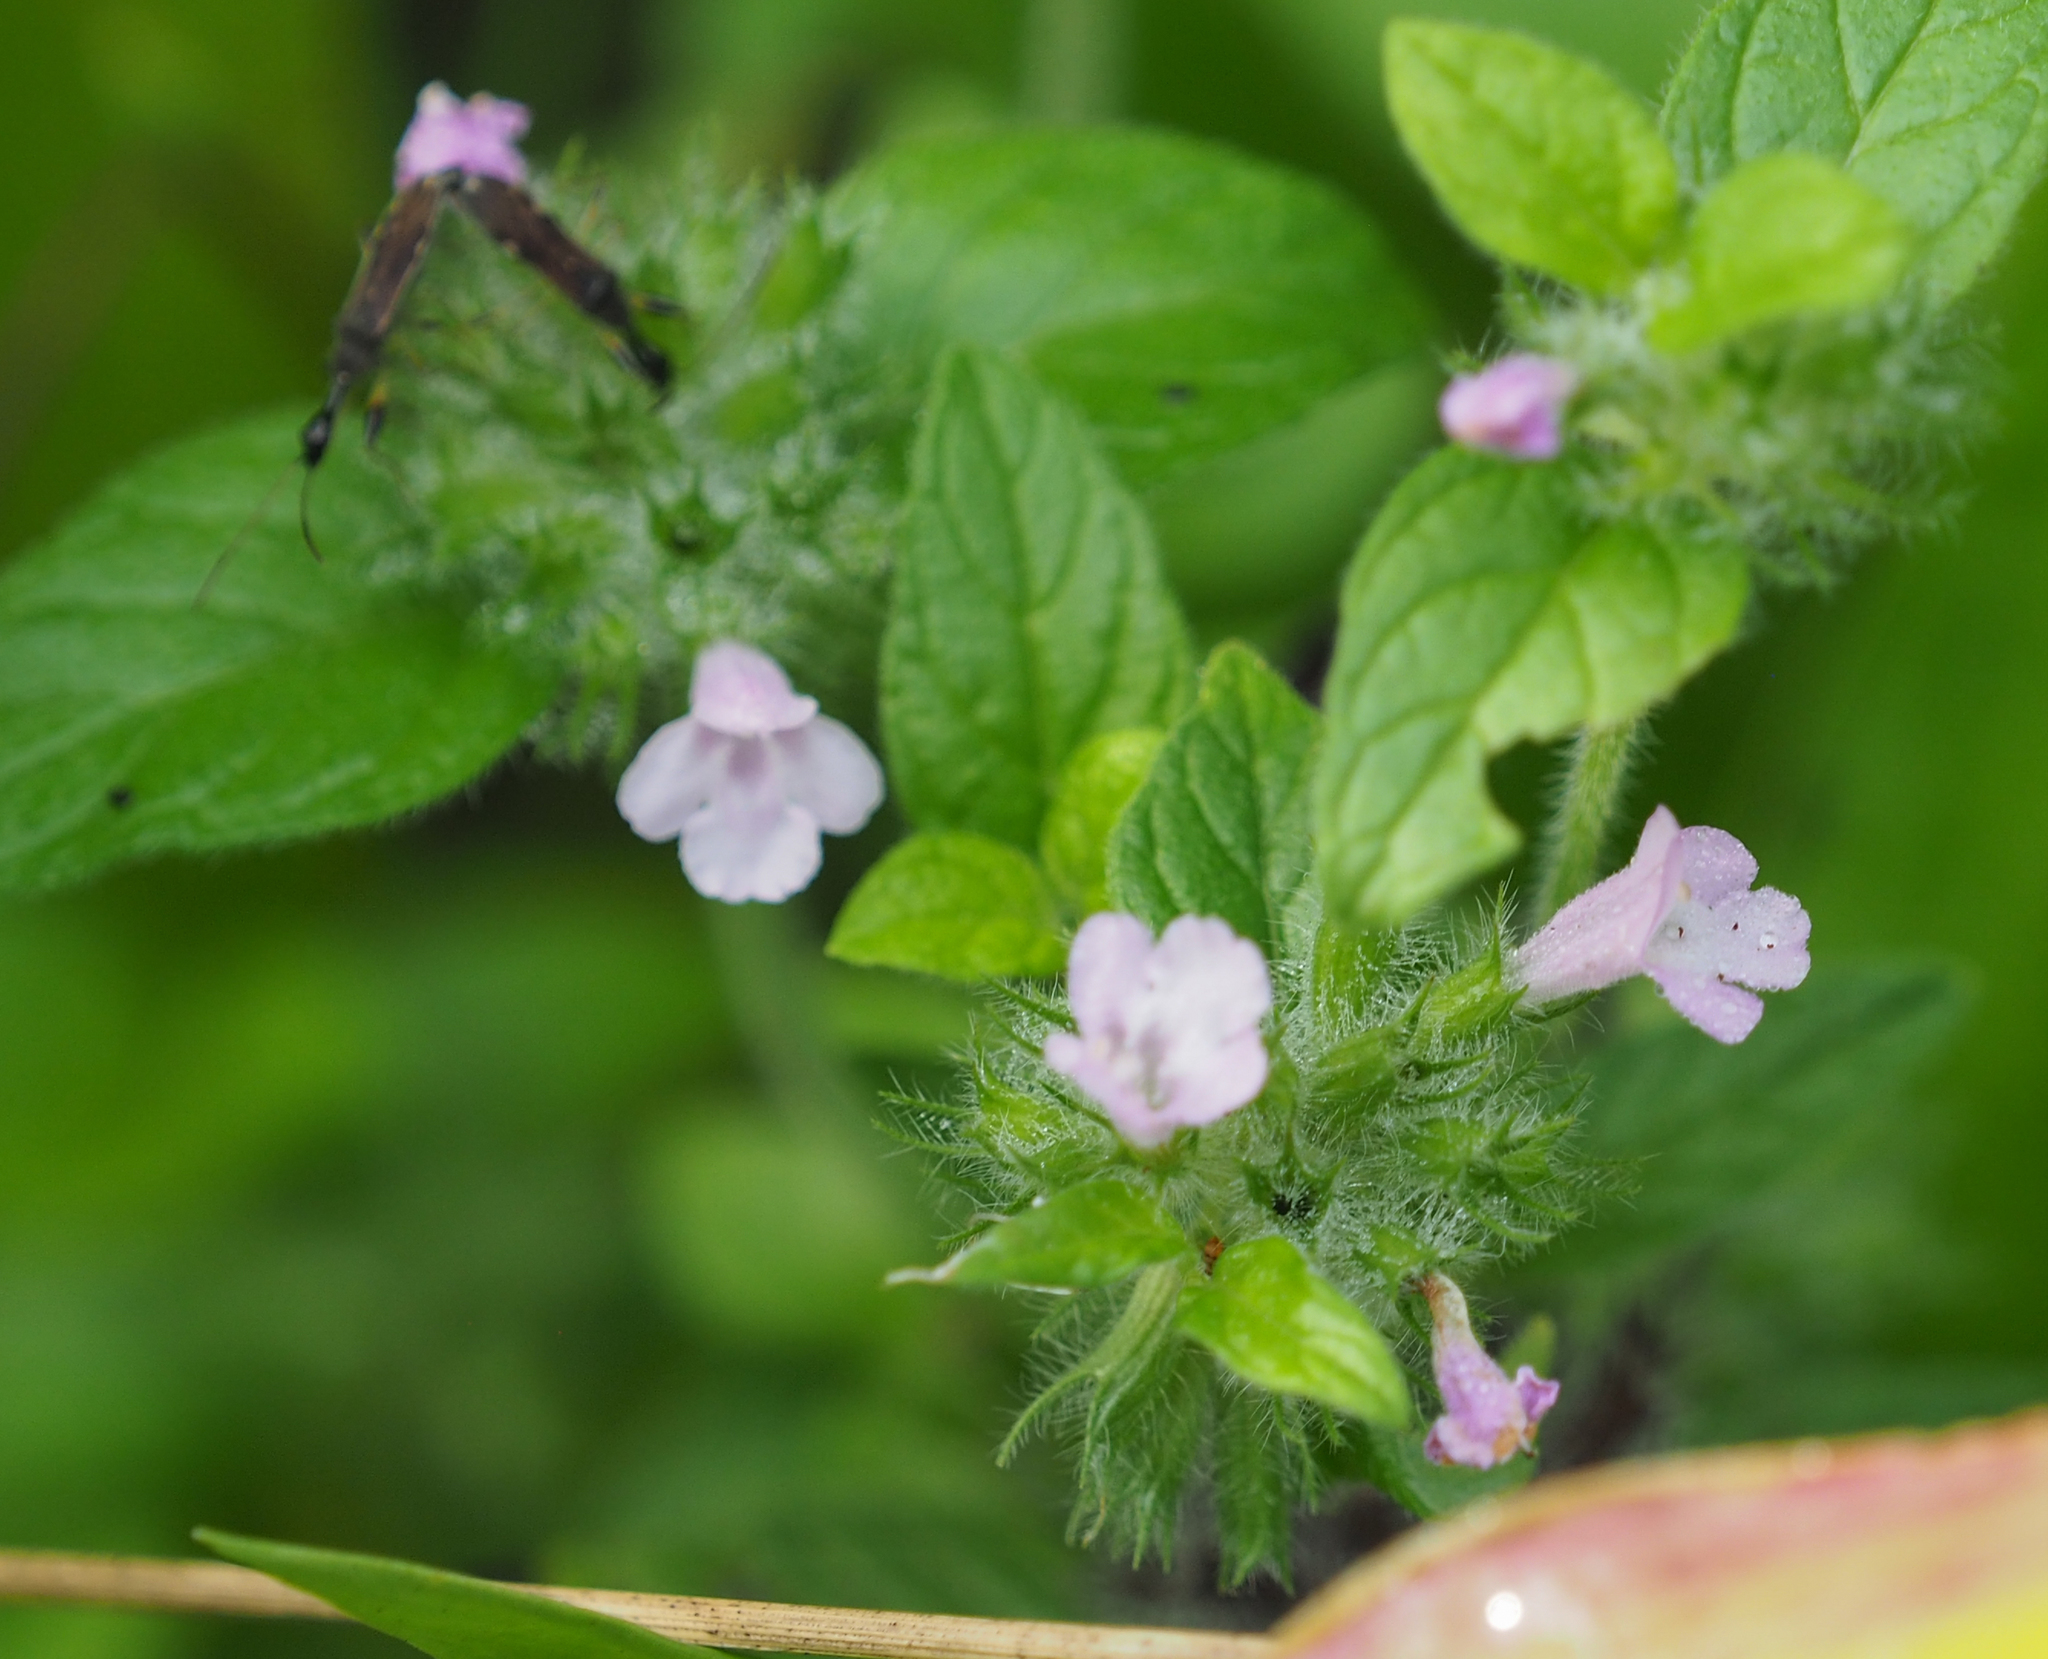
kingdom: Plantae
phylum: Tracheophyta
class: Magnoliopsida
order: Lamiales
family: Lamiaceae
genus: Clinopodium
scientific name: Clinopodium vulgare
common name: Wild basil
